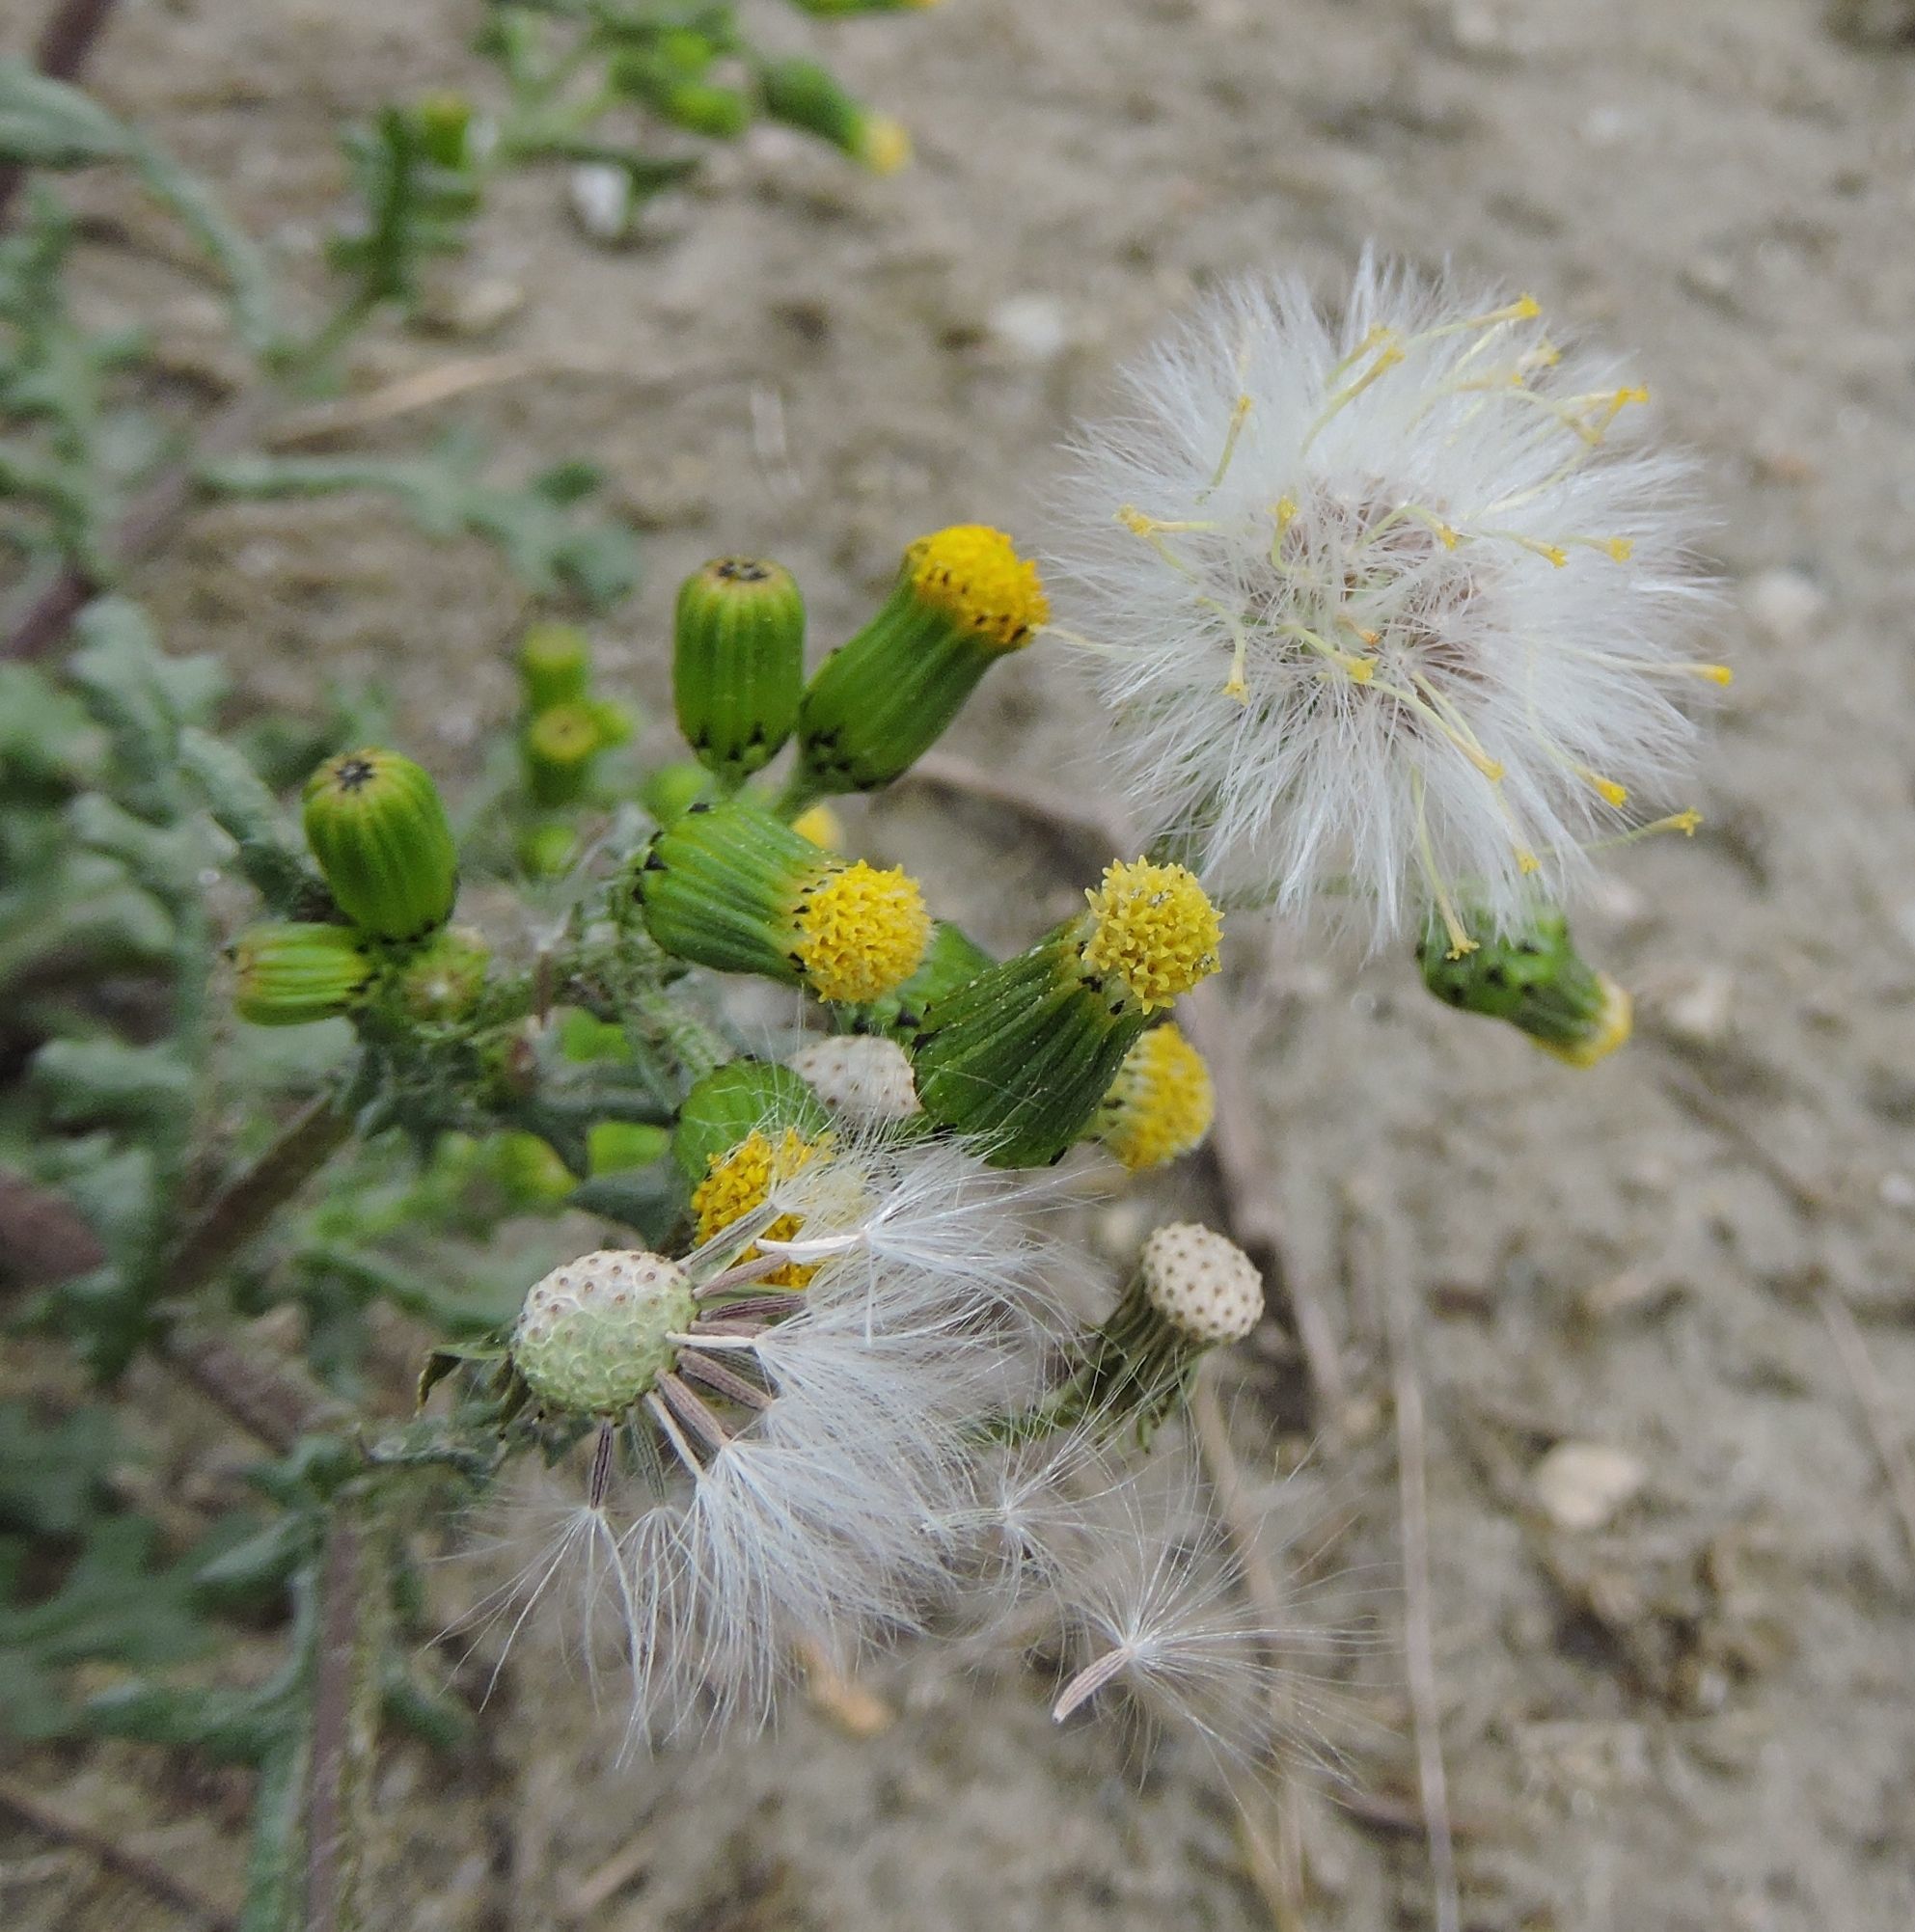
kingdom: Plantae
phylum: Tracheophyta
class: Magnoliopsida
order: Asterales
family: Asteraceae
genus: Senecio
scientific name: Senecio vulgaris
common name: Old-man-in-the-spring
